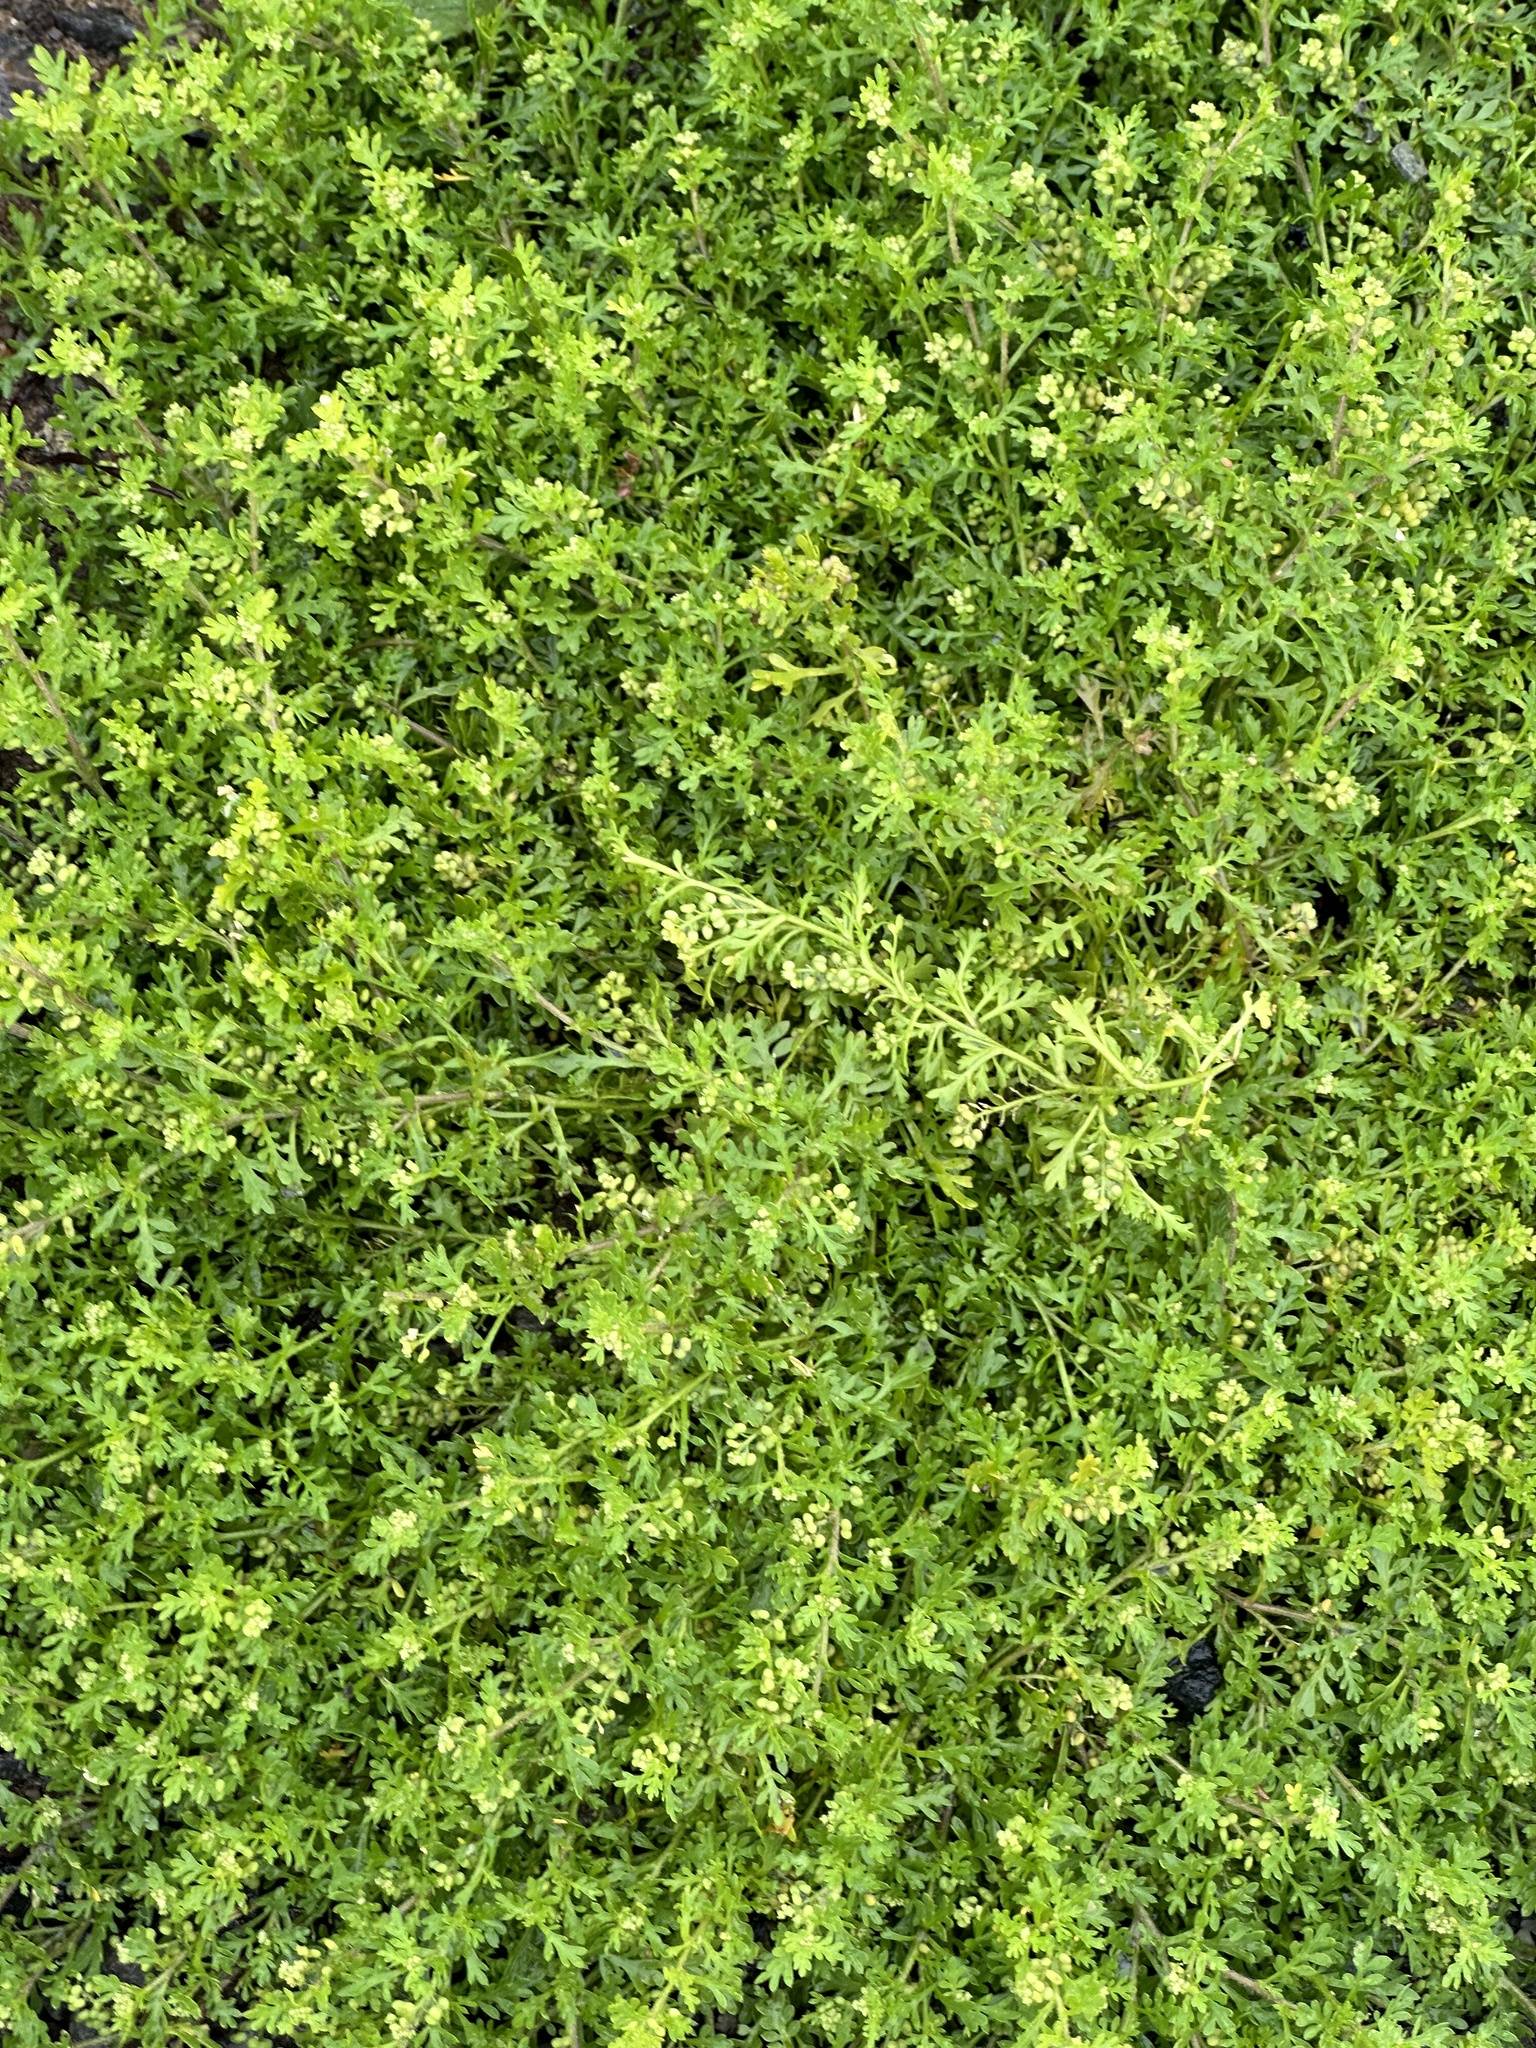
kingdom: Plantae
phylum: Tracheophyta
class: Magnoliopsida
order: Brassicales
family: Brassicaceae
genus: Lepidium
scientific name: Lepidium didymum
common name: Lesser swinecress
